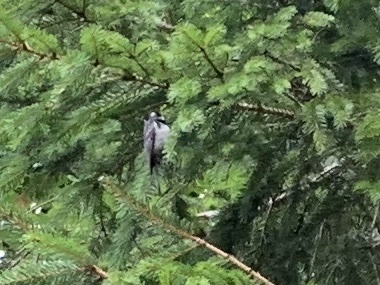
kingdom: Animalia
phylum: Chordata
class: Aves
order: Passeriformes
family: Paridae
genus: Periparus
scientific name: Periparus ater
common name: Coal tit
